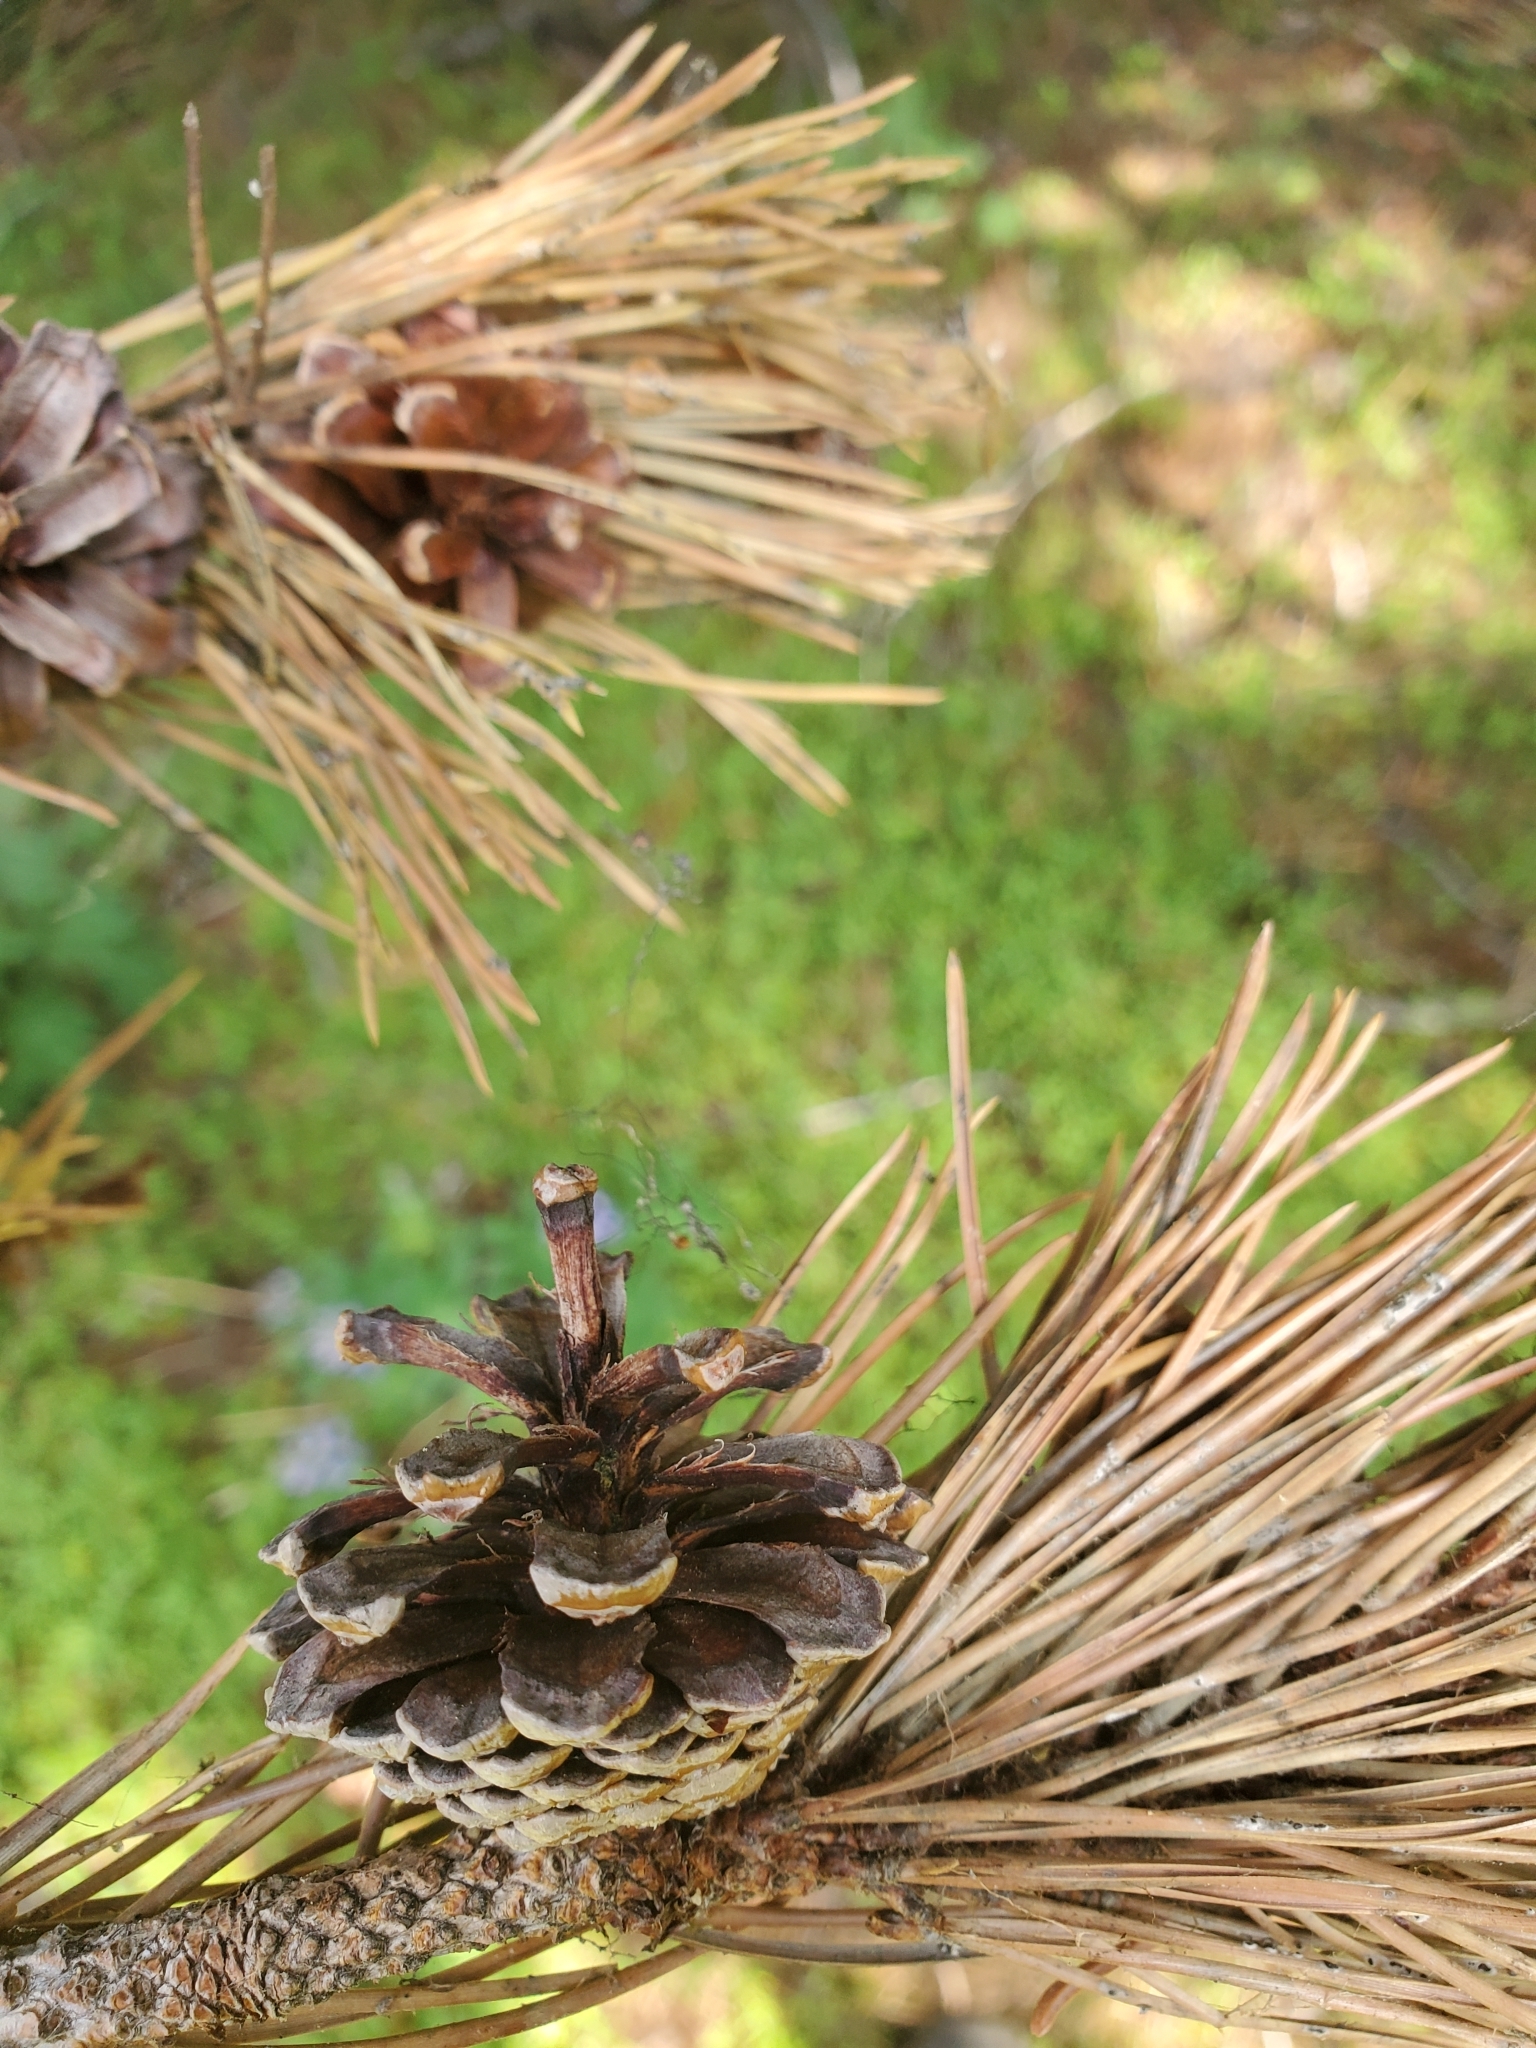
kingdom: Plantae
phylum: Tracheophyta
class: Pinopsida
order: Pinales
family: Pinaceae
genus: Pinus
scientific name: Pinus contorta
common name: Lodgepole pine
